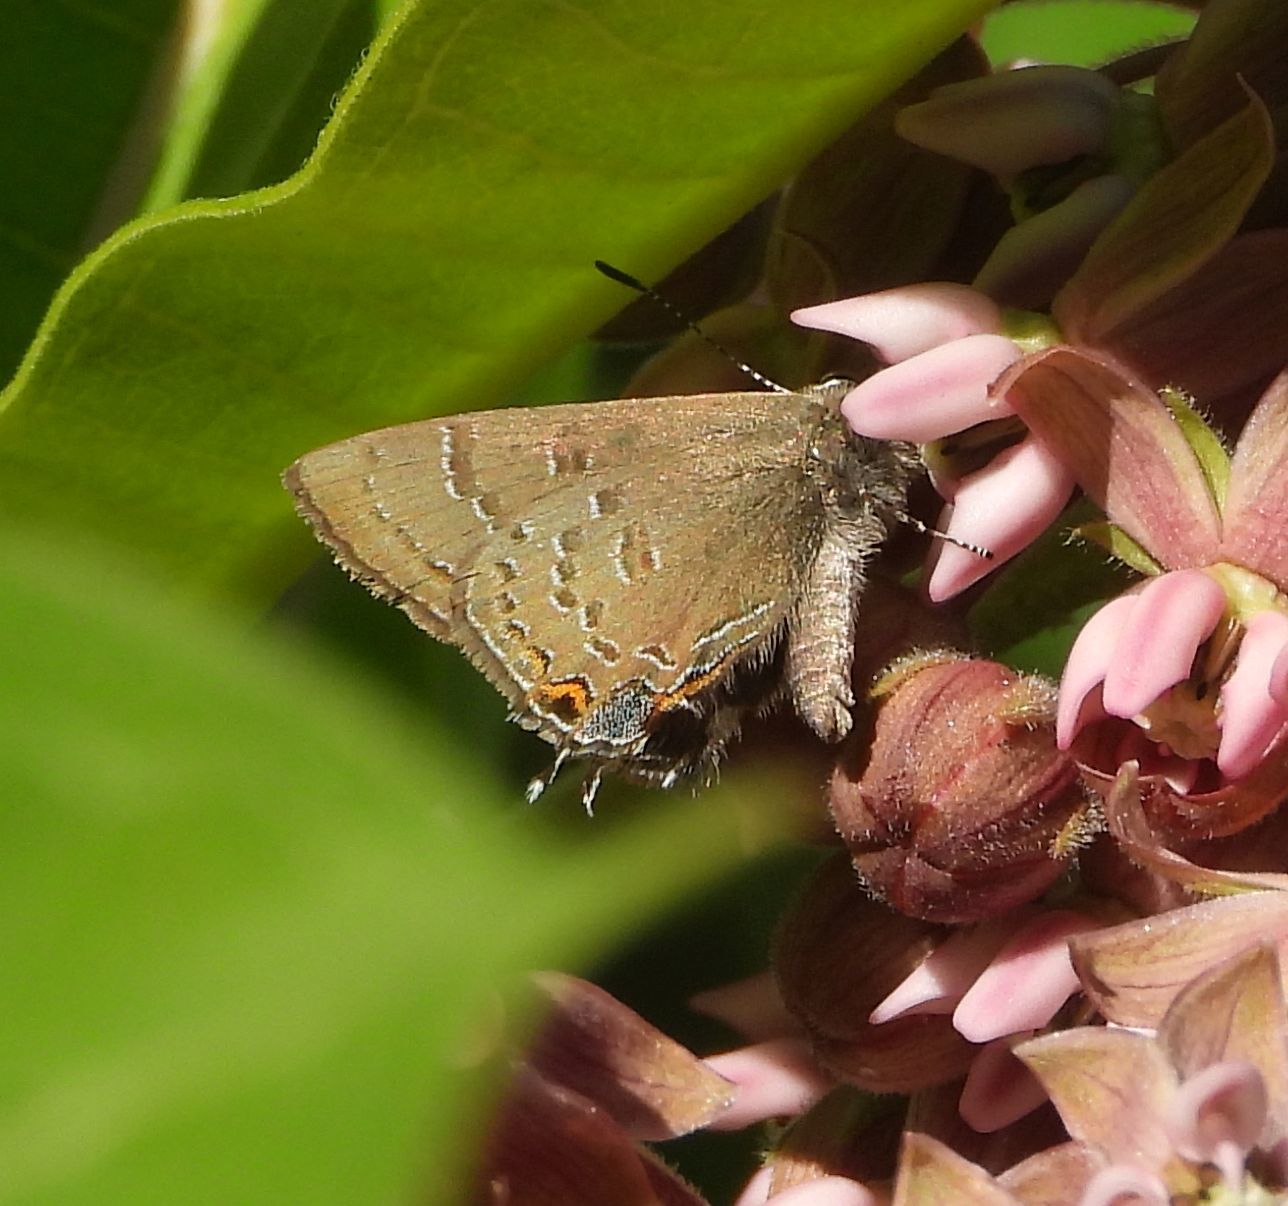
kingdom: Animalia
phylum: Arthropoda
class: Insecta
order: Lepidoptera
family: Lycaenidae
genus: Satyrium
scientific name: Satyrium calanus
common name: Banded hairstreak
